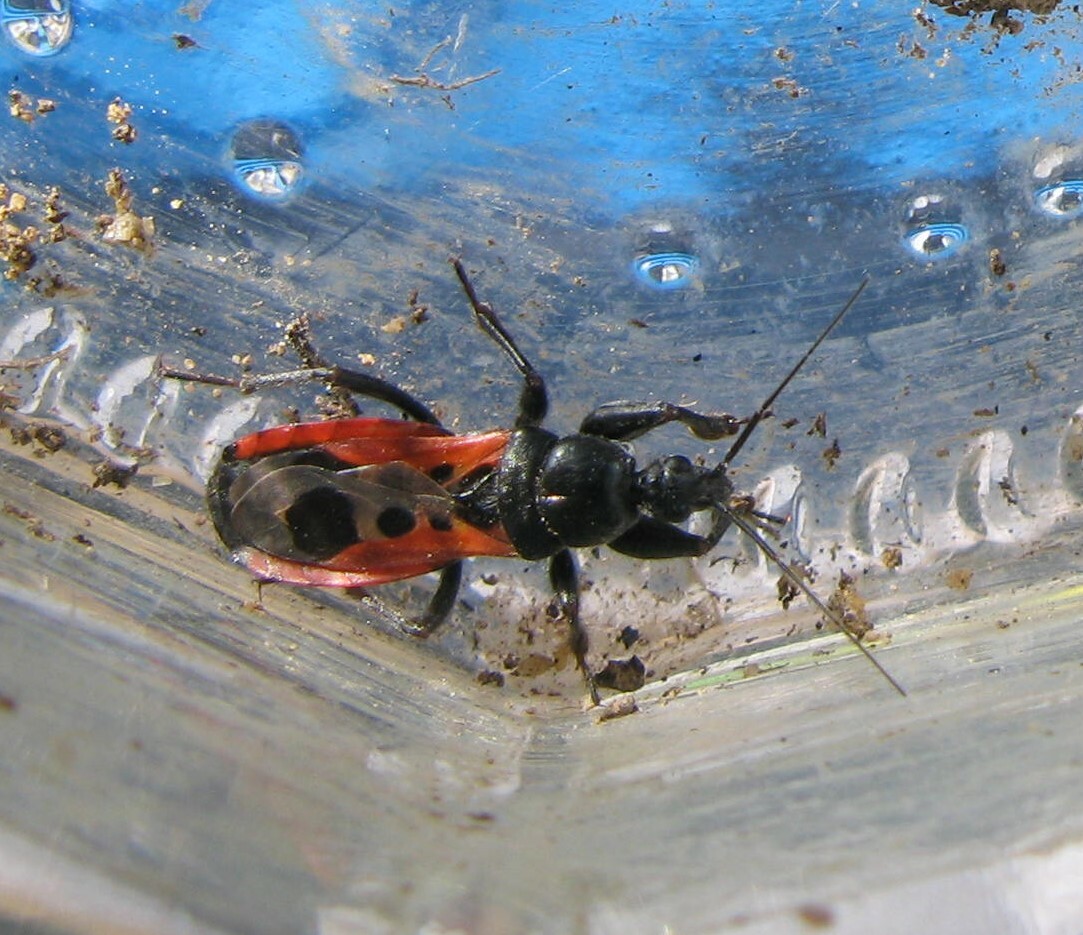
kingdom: Animalia
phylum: Arthropoda
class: Insecta
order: Hemiptera
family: Reduviidae
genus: Peirates
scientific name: Peirates stridulus
